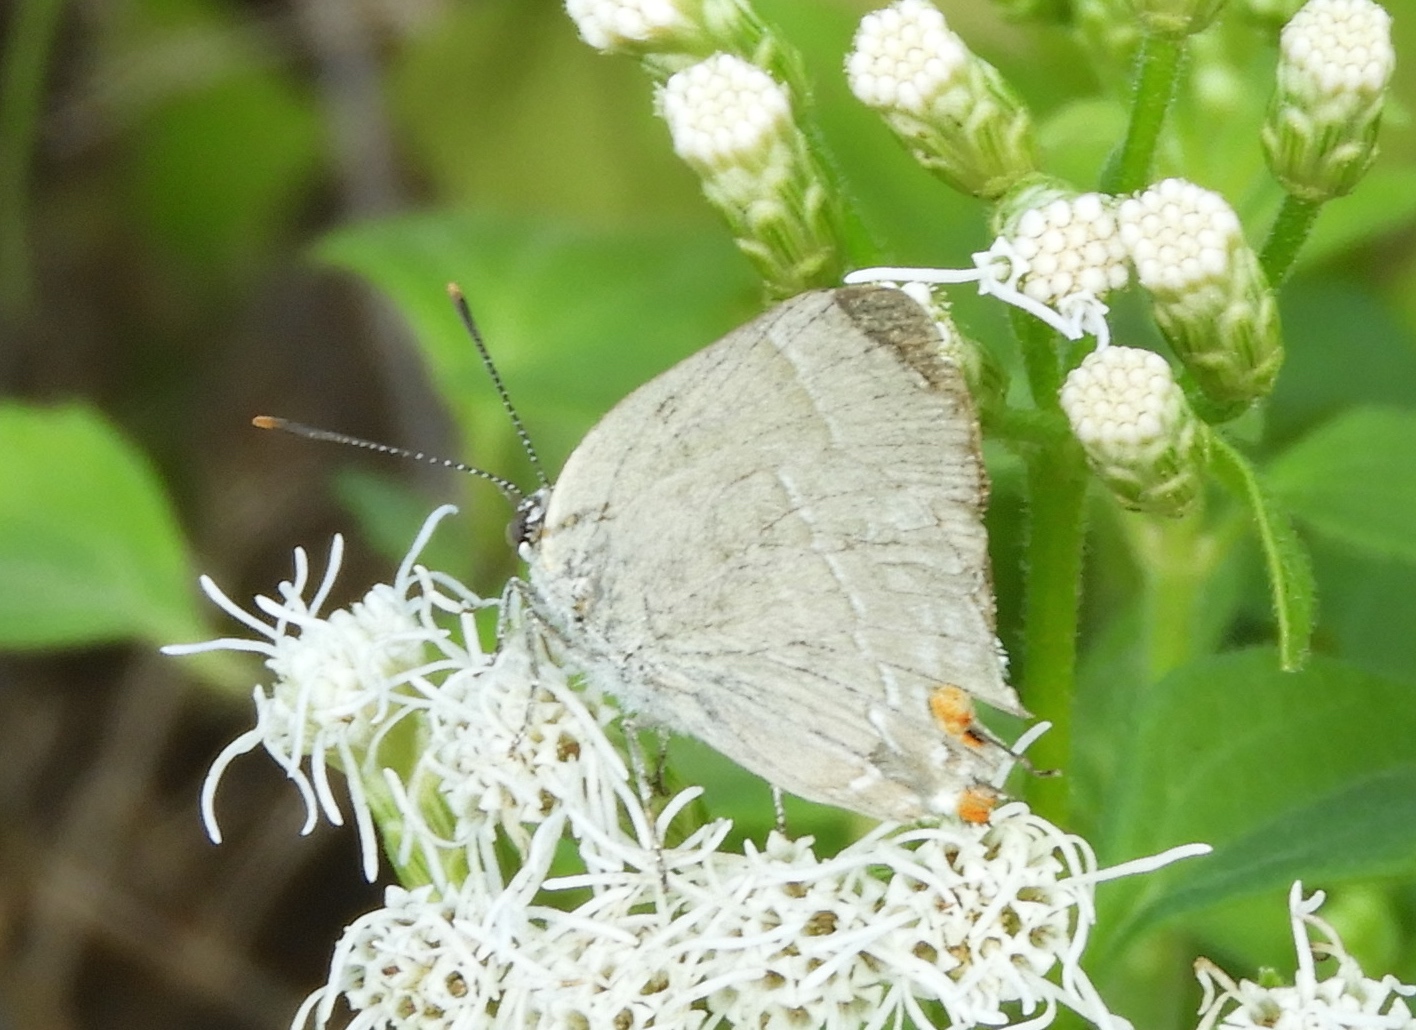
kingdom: Animalia
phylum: Arthropoda
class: Insecta
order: Lepidoptera
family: Lycaenidae
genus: Thecla
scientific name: Thecla marius
